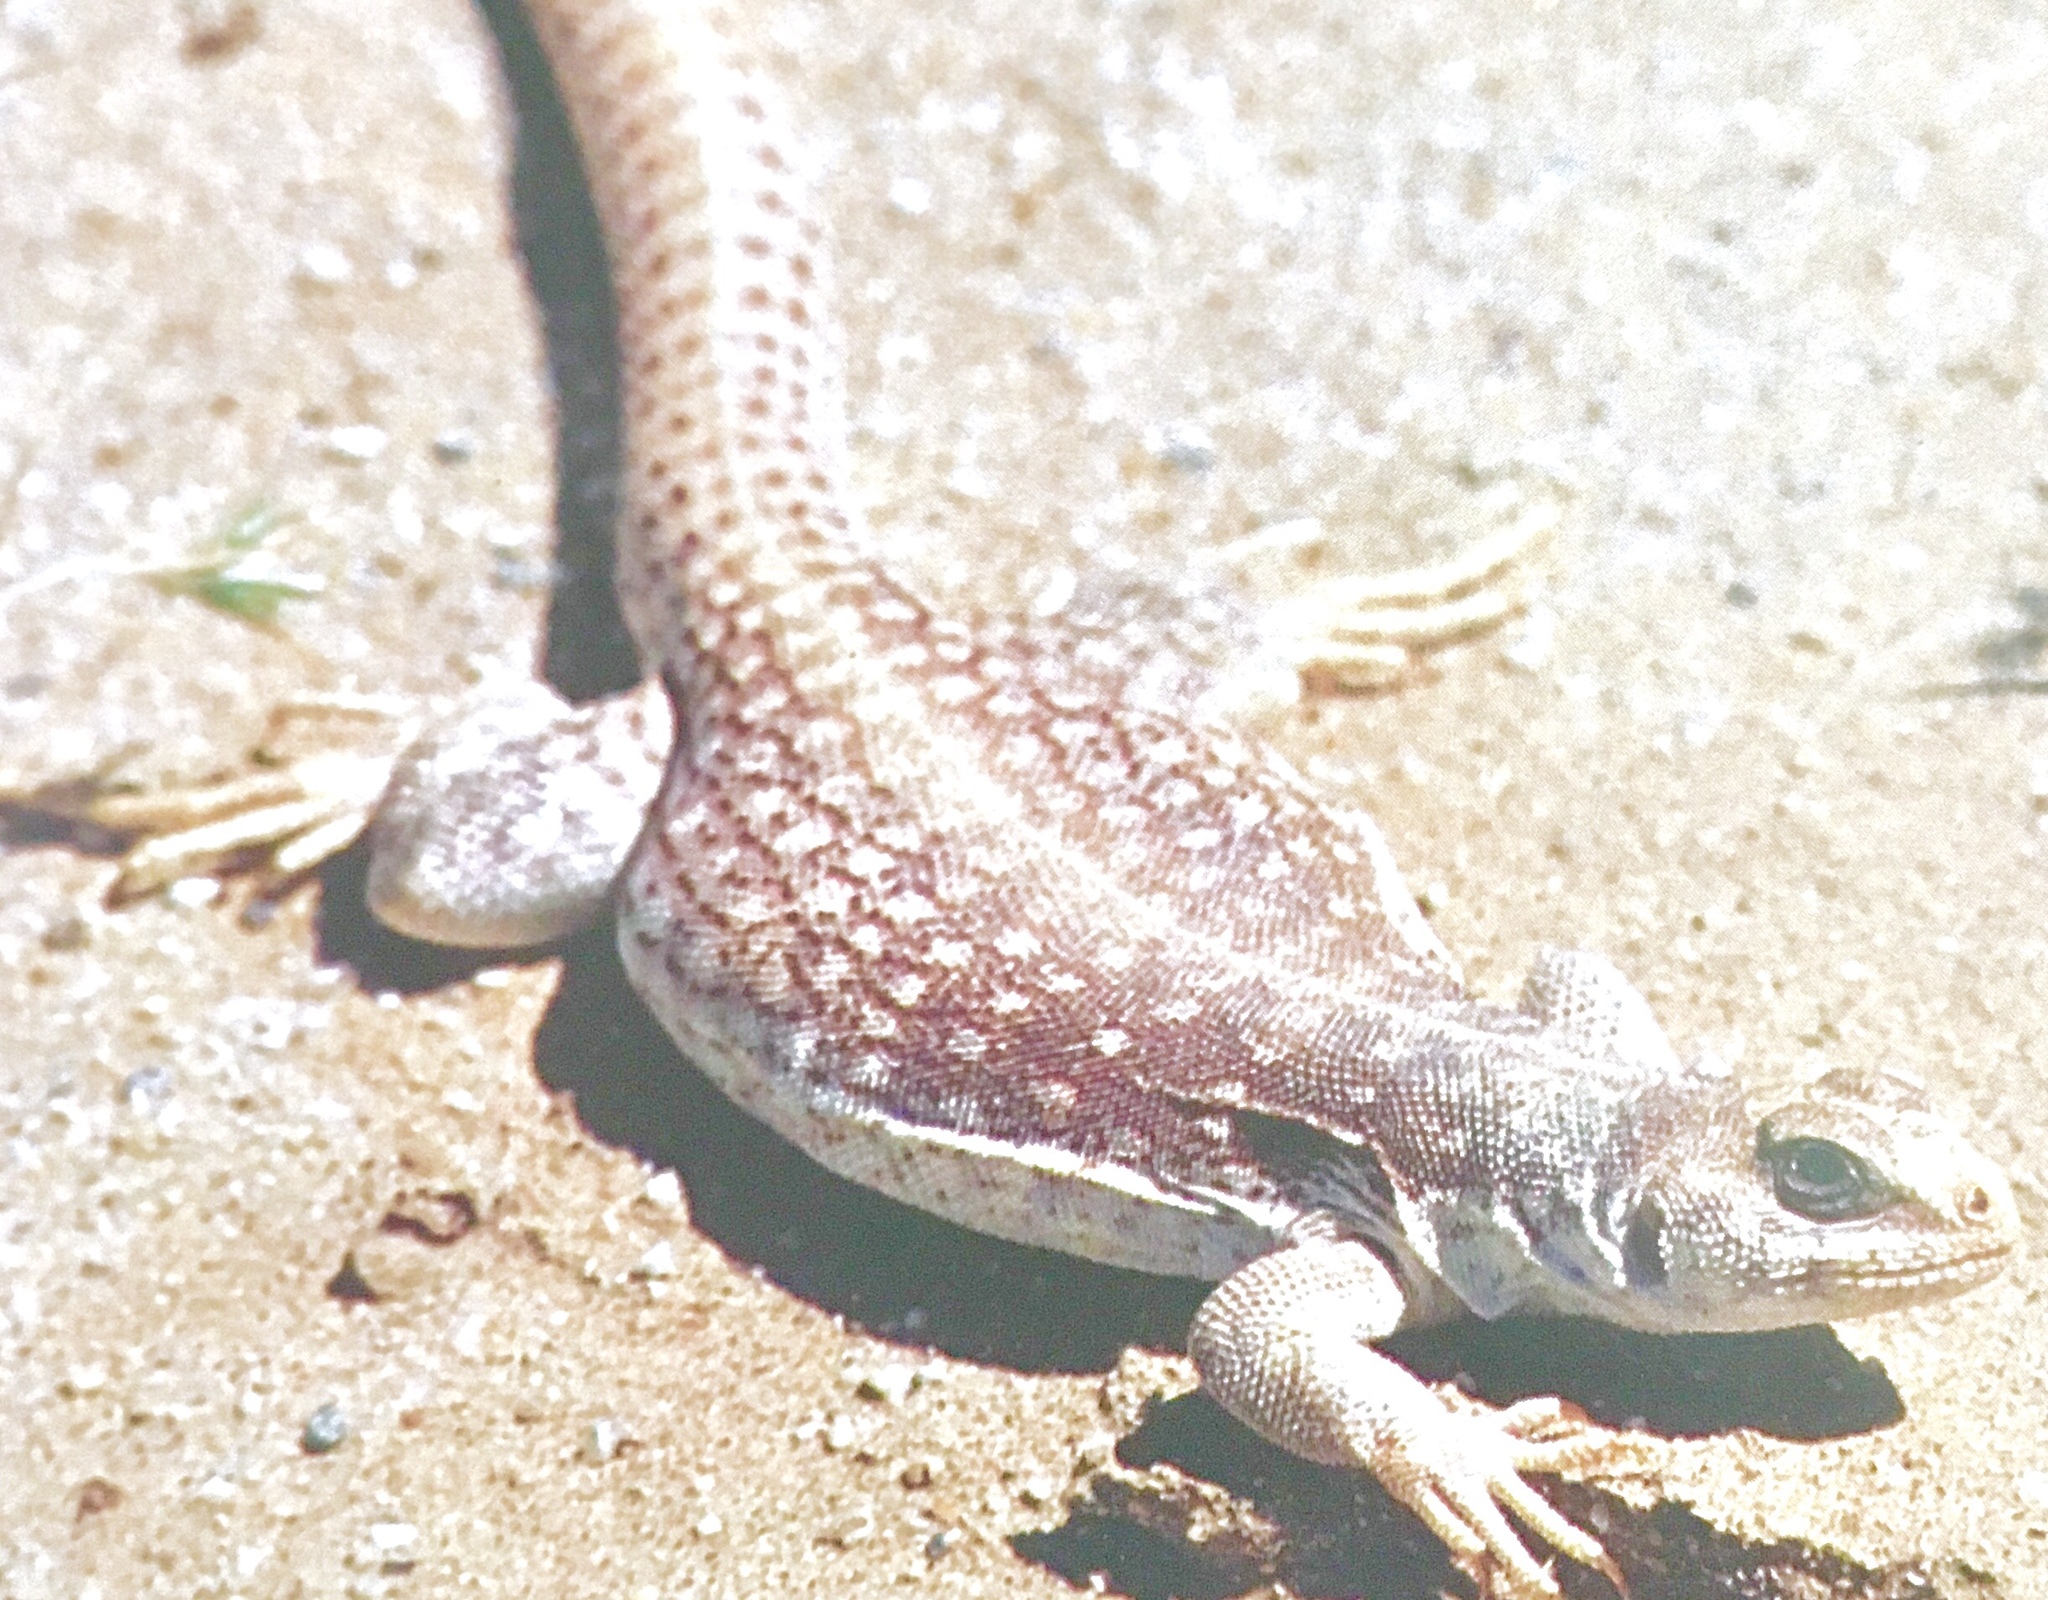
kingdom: Animalia
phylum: Chordata
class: Squamata
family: Iguanidae
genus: Dipsosaurus
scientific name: Dipsosaurus dorsalis
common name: Desert iguana
